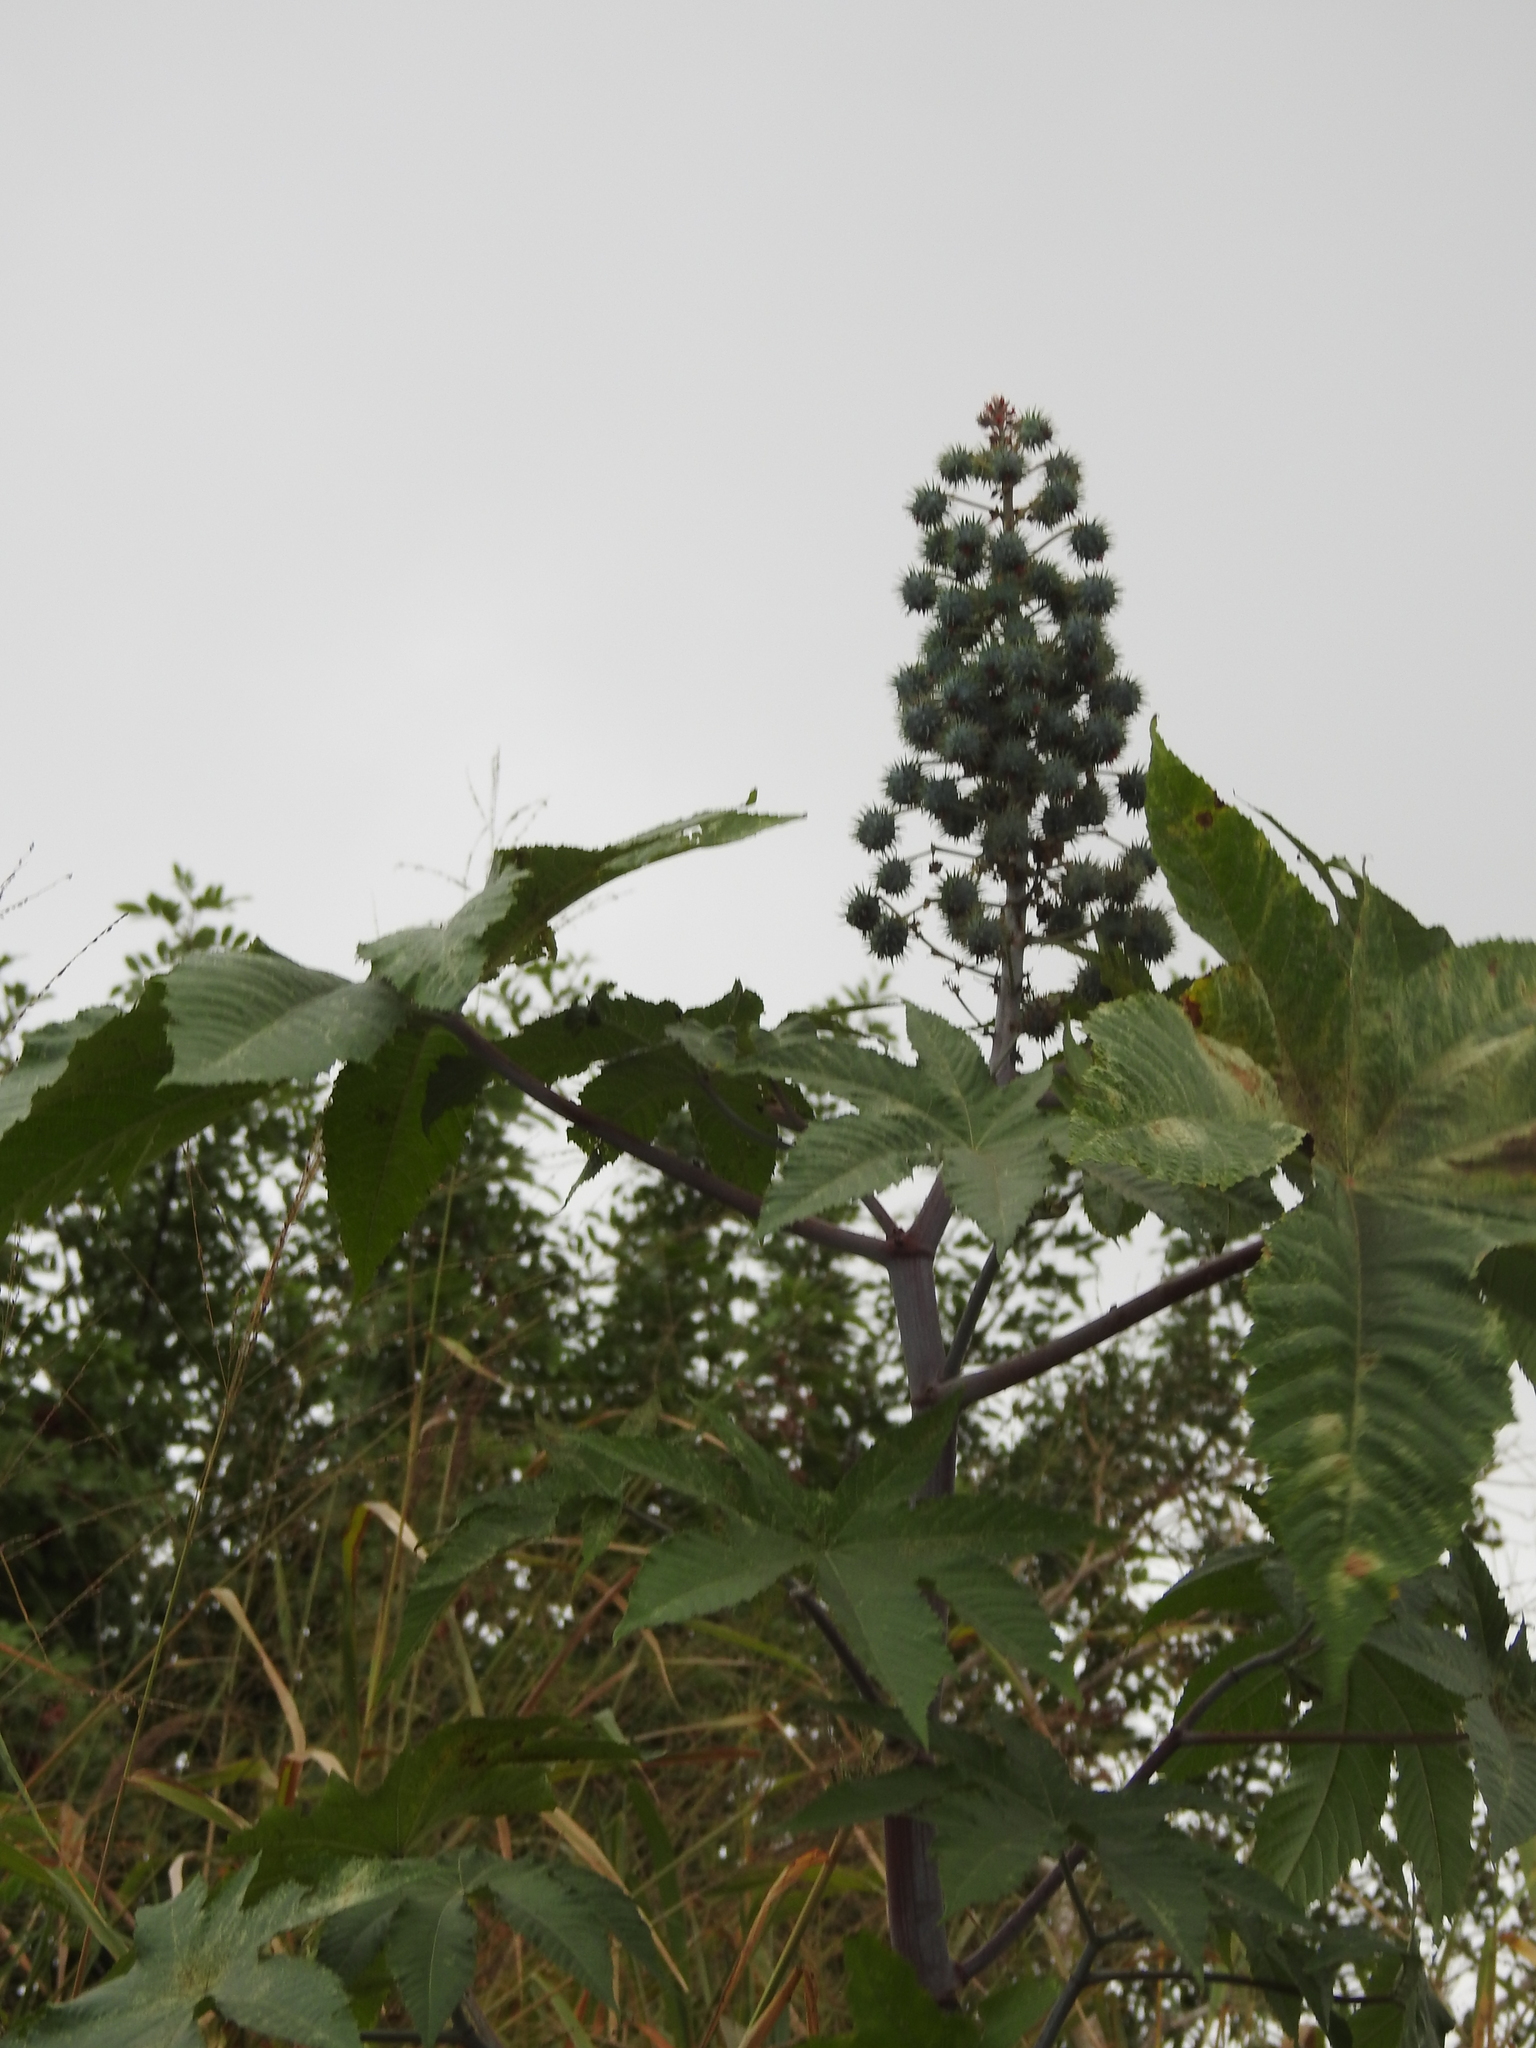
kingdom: Plantae
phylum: Tracheophyta
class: Magnoliopsida
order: Malpighiales
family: Euphorbiaceae
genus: Ricinus
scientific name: Ricinus communis
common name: Castor-oil-plant
